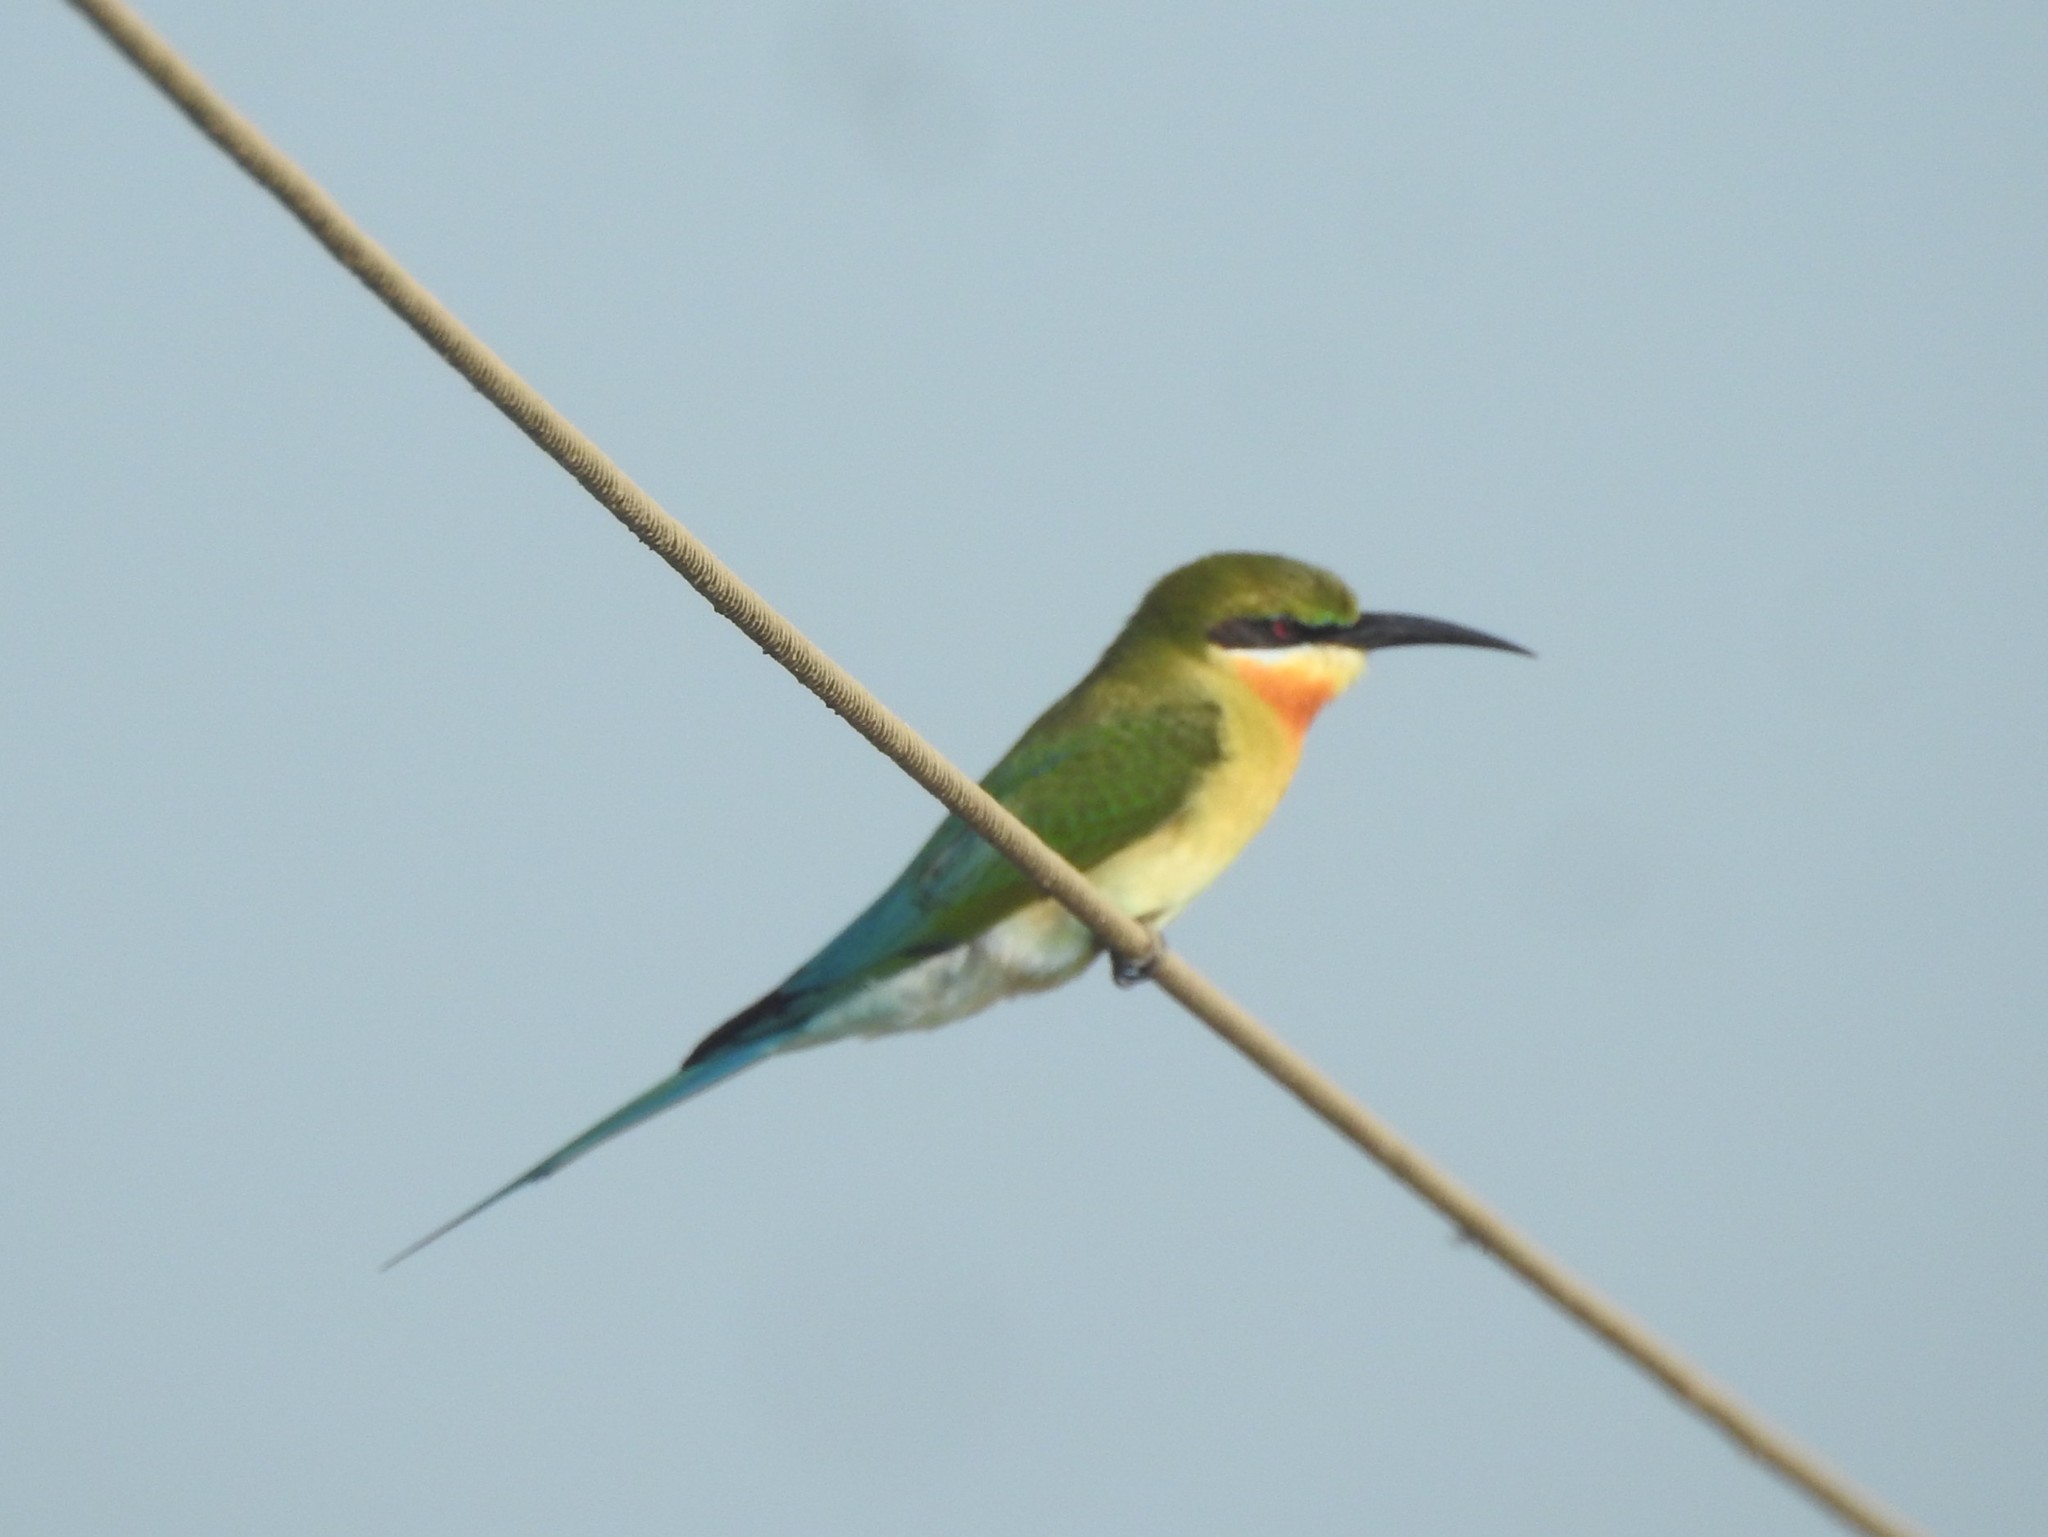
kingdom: Animalia
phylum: Chordata
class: Aves
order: Coraciiformes
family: Meropidae
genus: Merops
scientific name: Merops philippinus
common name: Blue-tailed bee-eater
